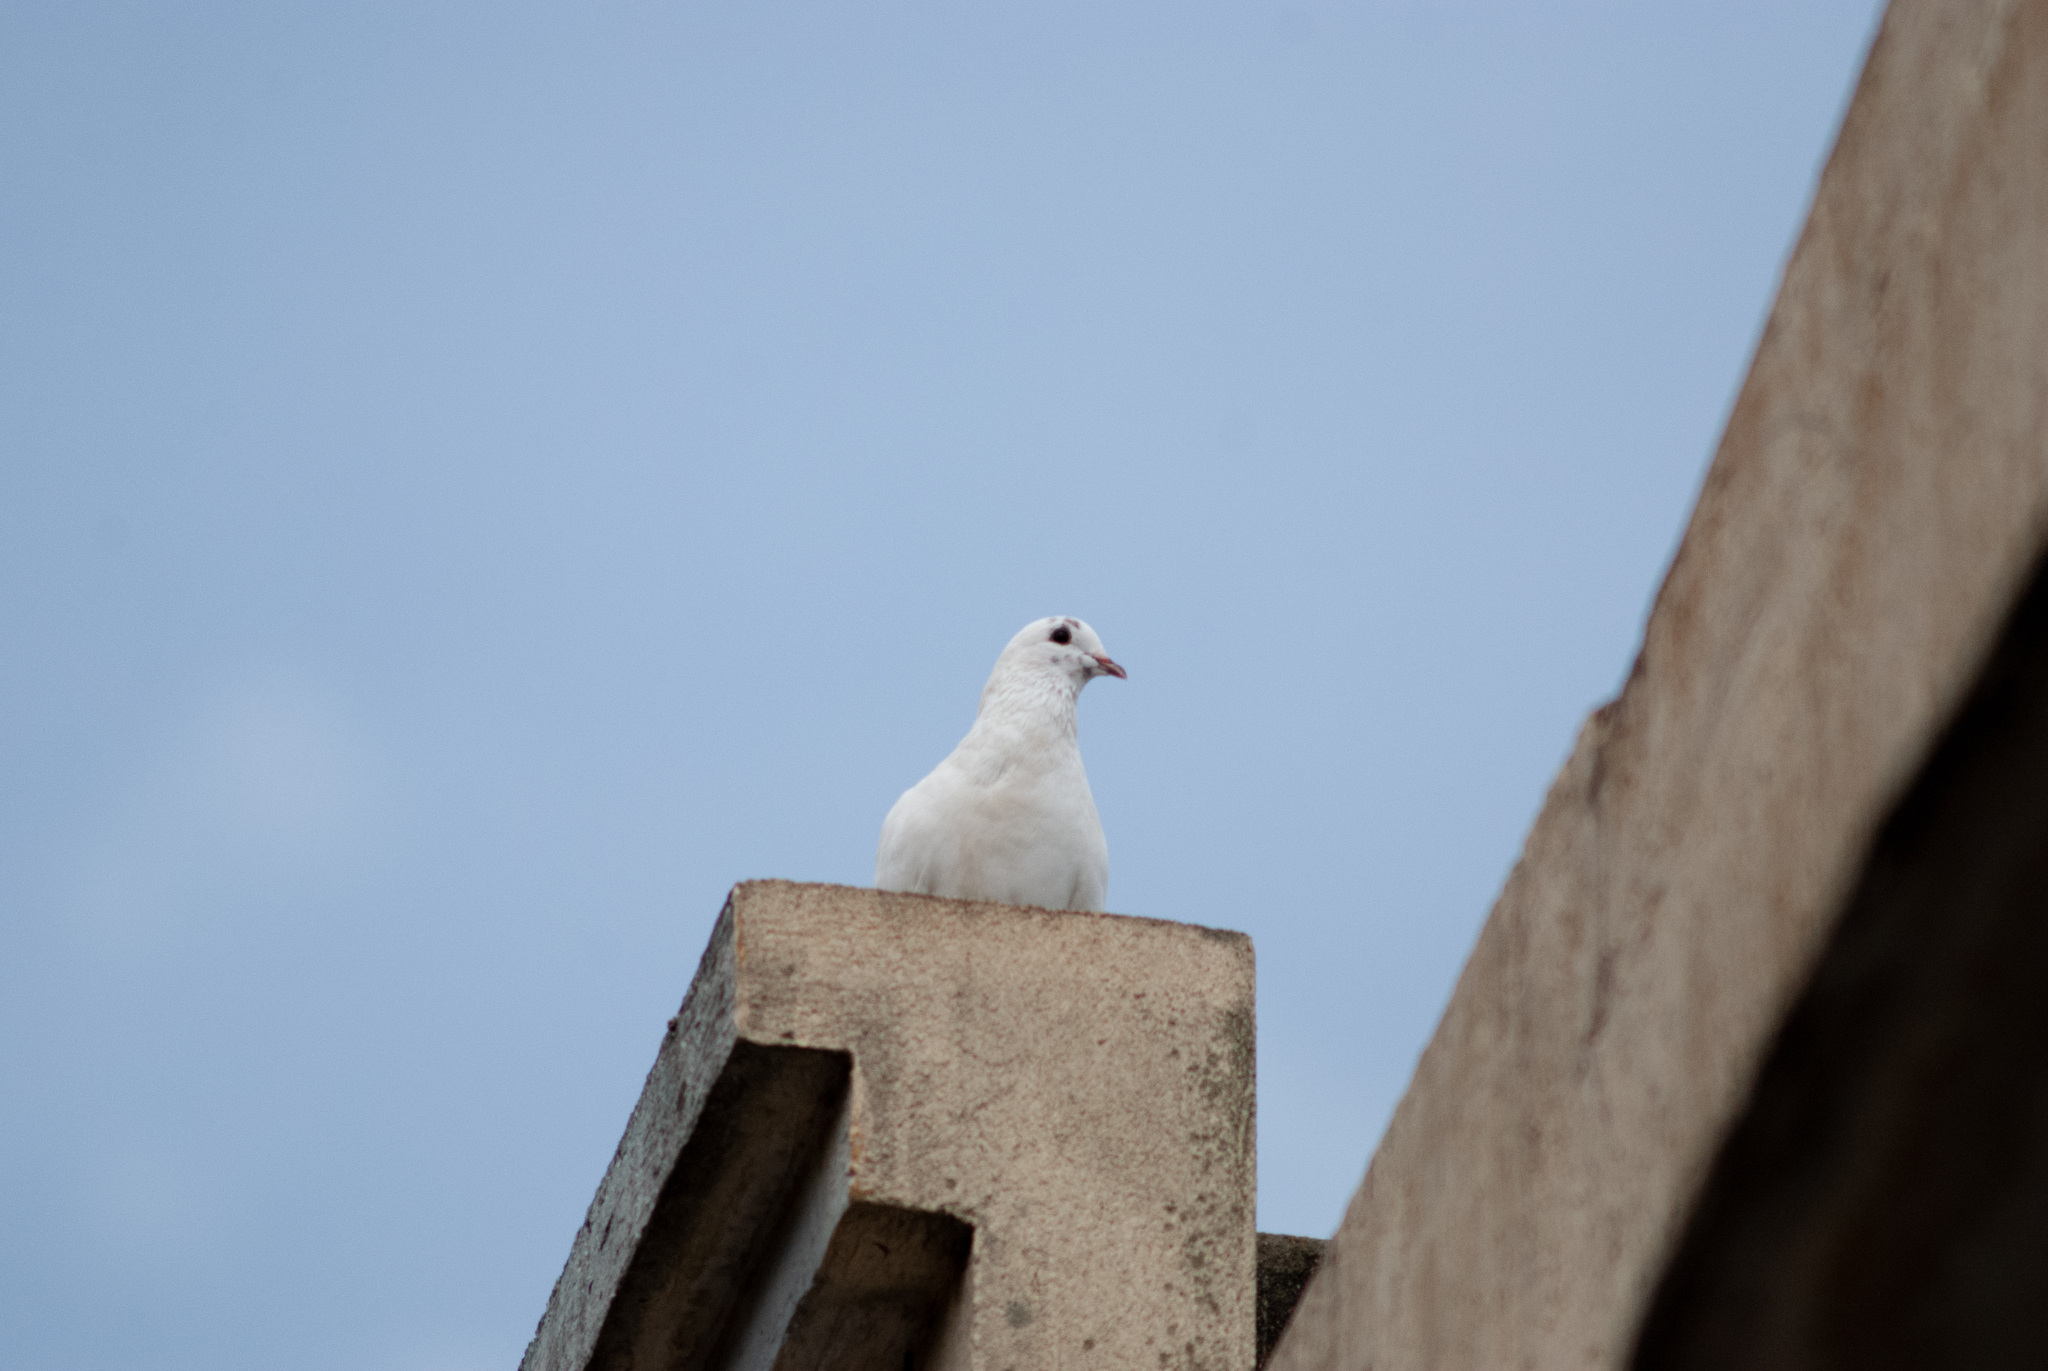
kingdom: Animalia
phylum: Chordata
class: Aves
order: Columbiformes
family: Columbidae
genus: Columba
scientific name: Columba livia
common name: Rock pigeon
